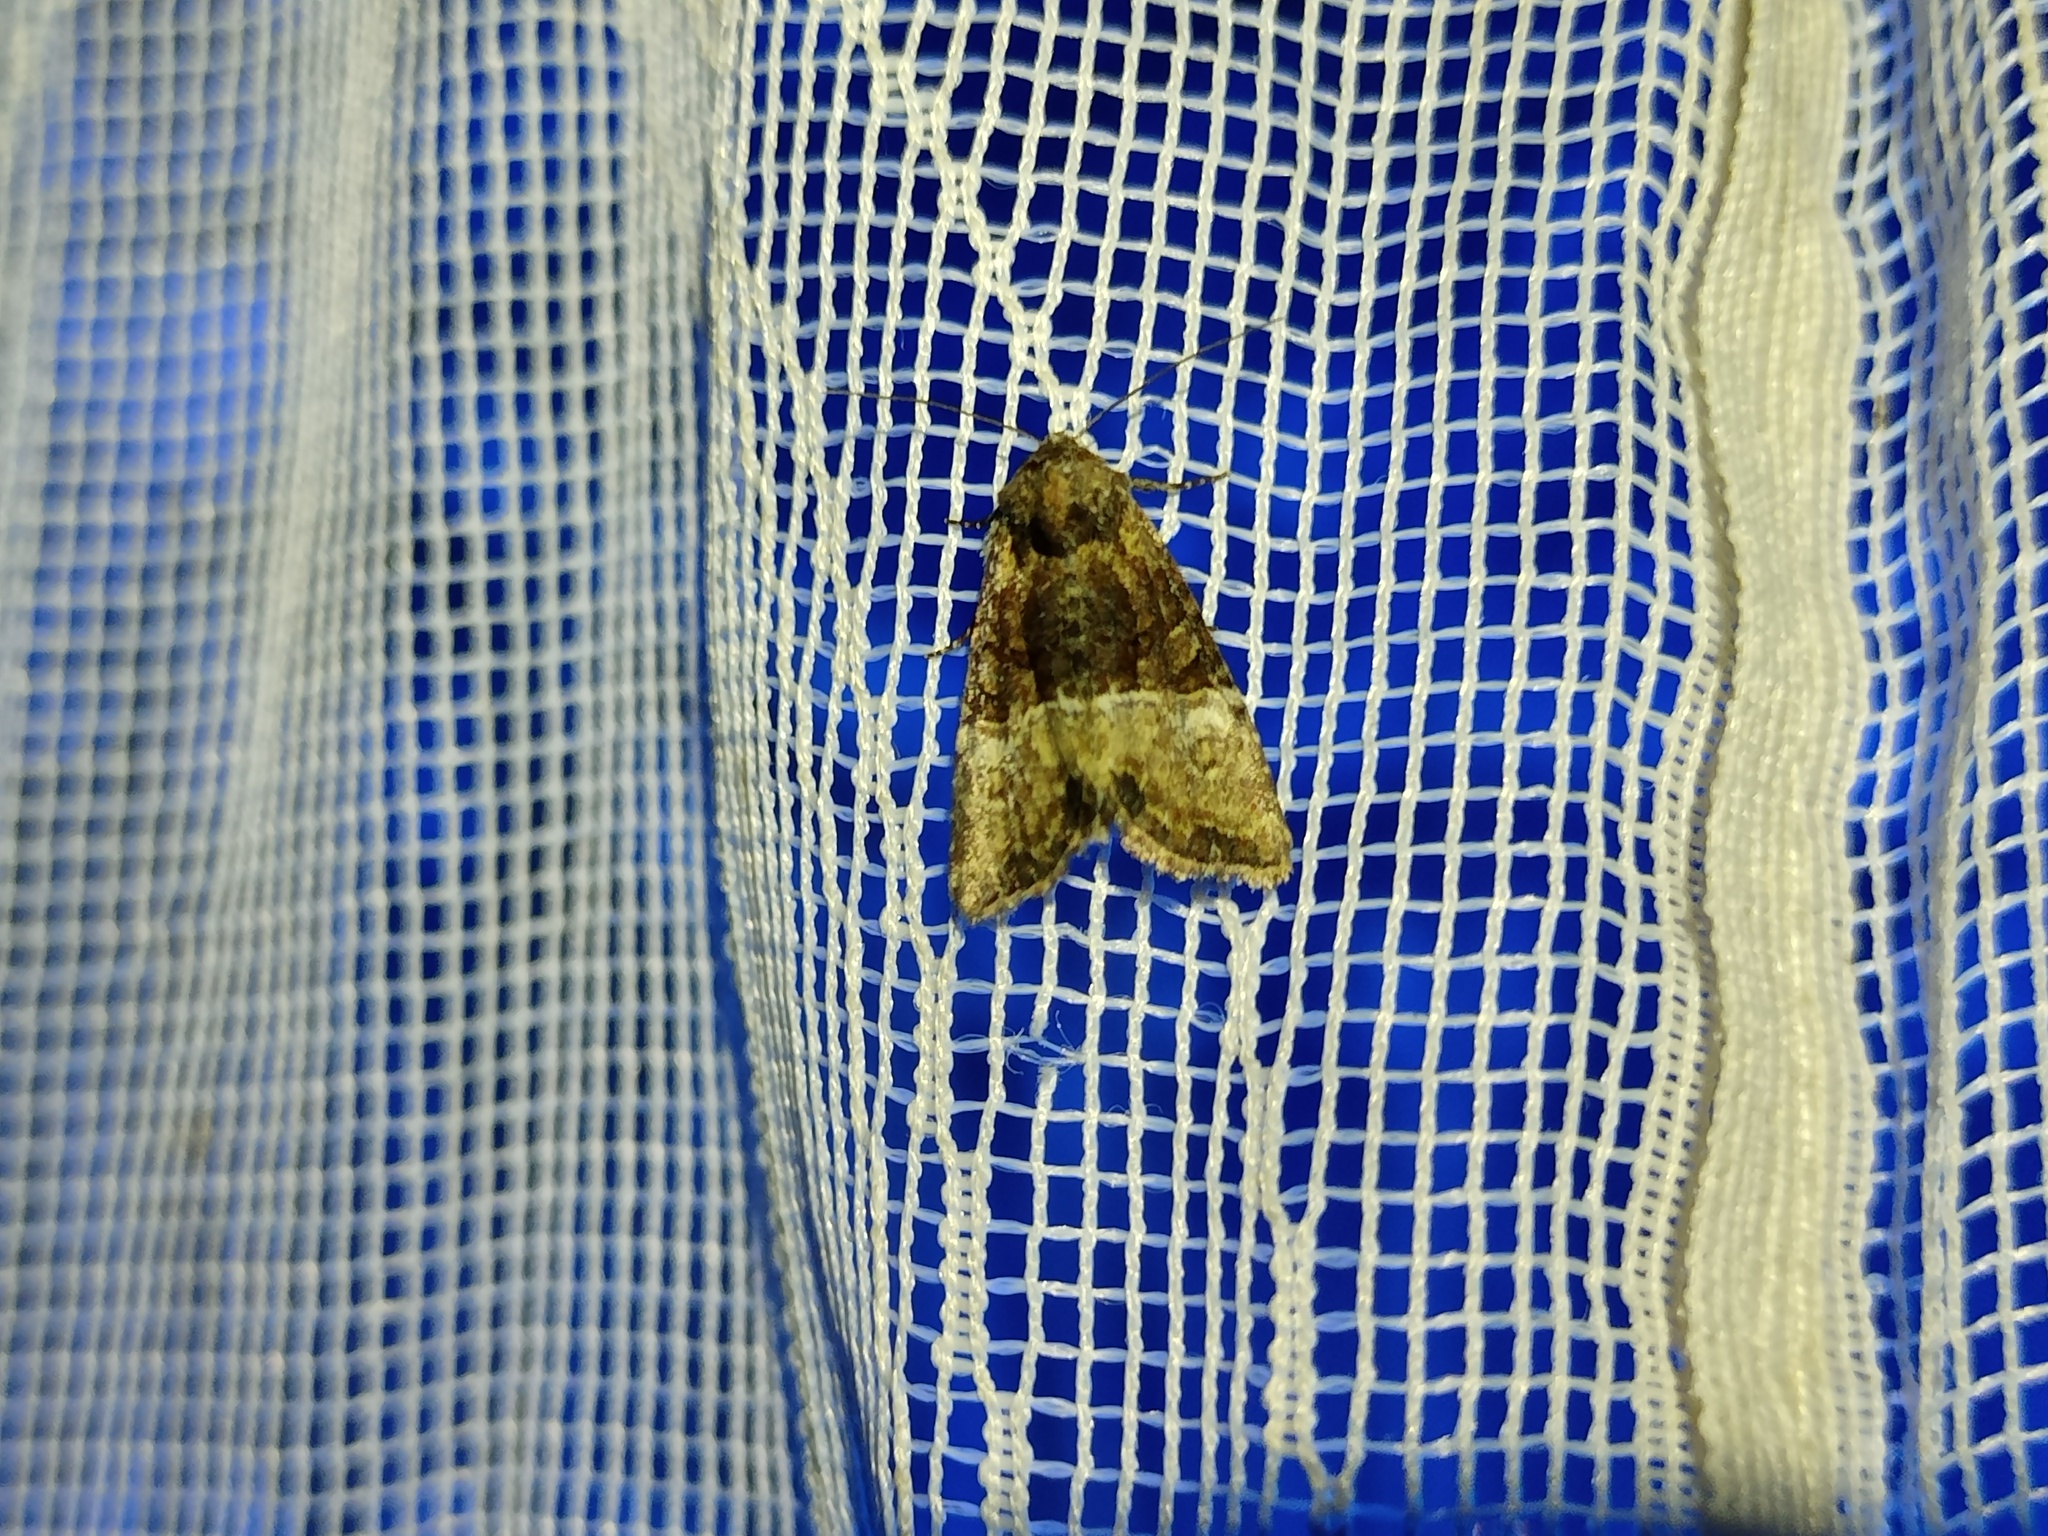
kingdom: Animalia
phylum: Arthropoda
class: Insecta
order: Lepidoptera
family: Noctuidae
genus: Mesoligia
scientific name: Mesoligia furuncula
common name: Cloaked minor
